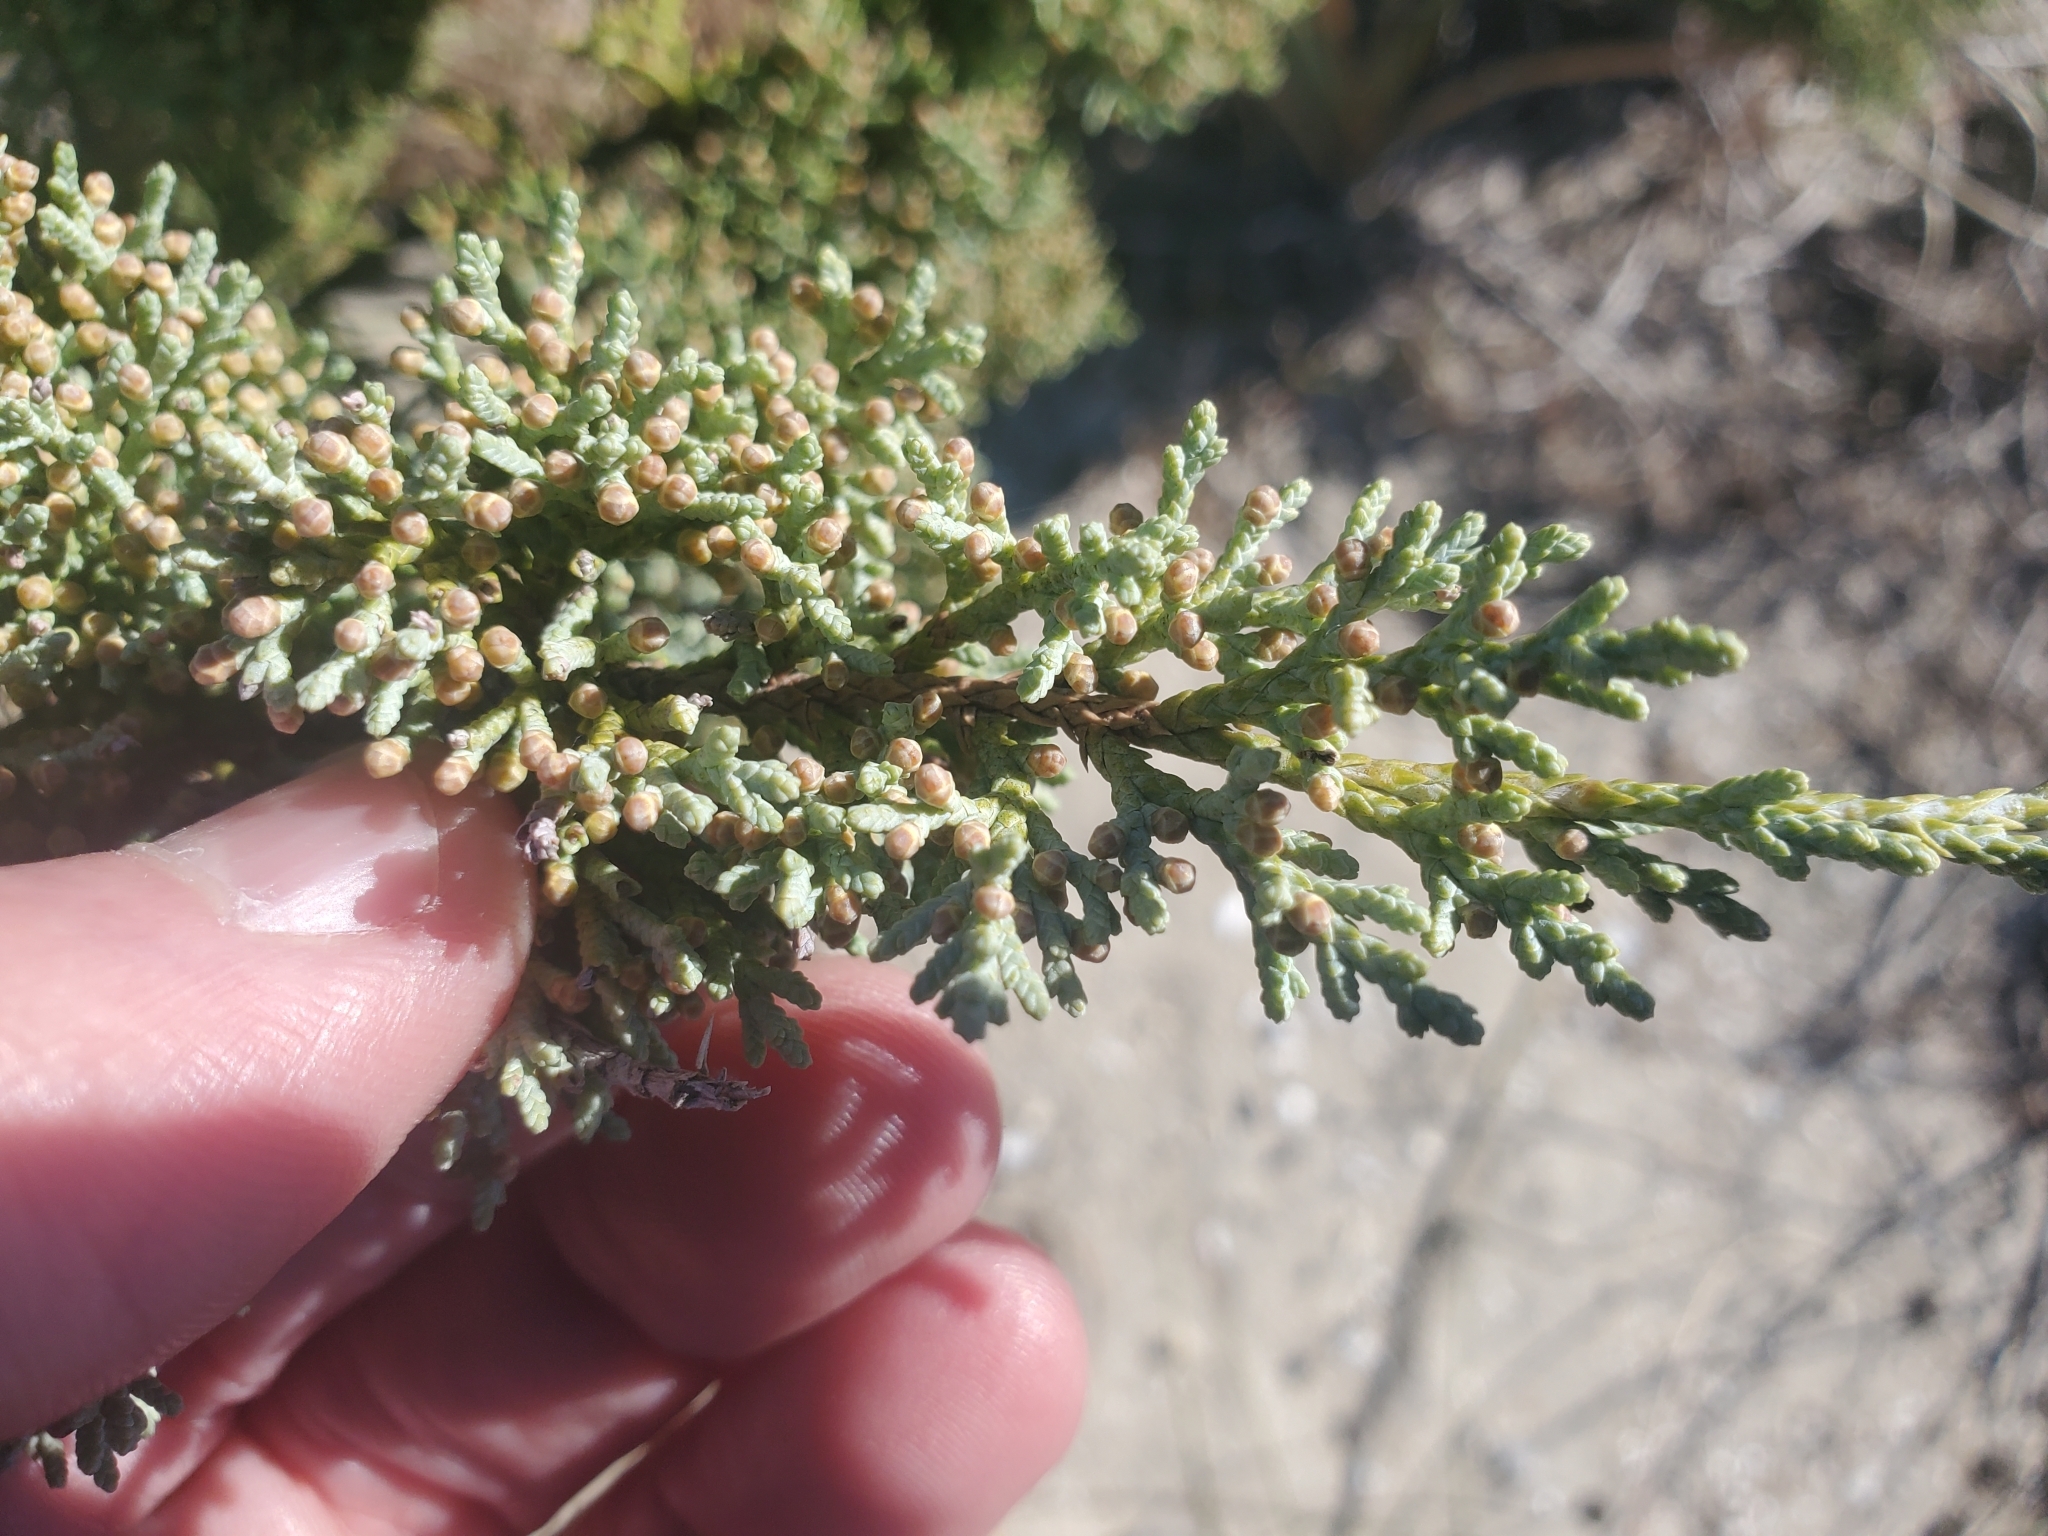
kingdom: Plantae
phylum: Tracheophyta
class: Pinopsida
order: Pinales
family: Cupressaceae
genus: Juniperus
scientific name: Juniperus virginiana
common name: Red juniper
